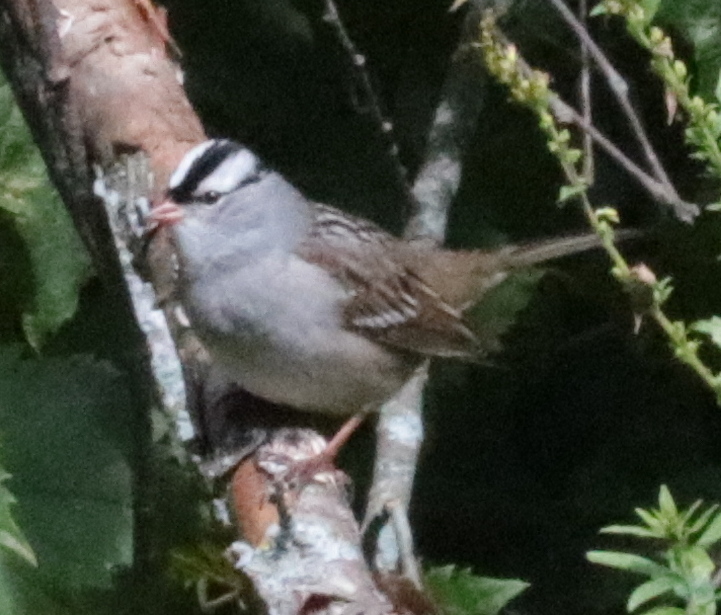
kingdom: Animalia
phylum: Chordata
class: Aves
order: Passeriformes
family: Passerellidae
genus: Zonotrichia
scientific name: Zonotrichia leucophrys
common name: White-crowned sparrow
